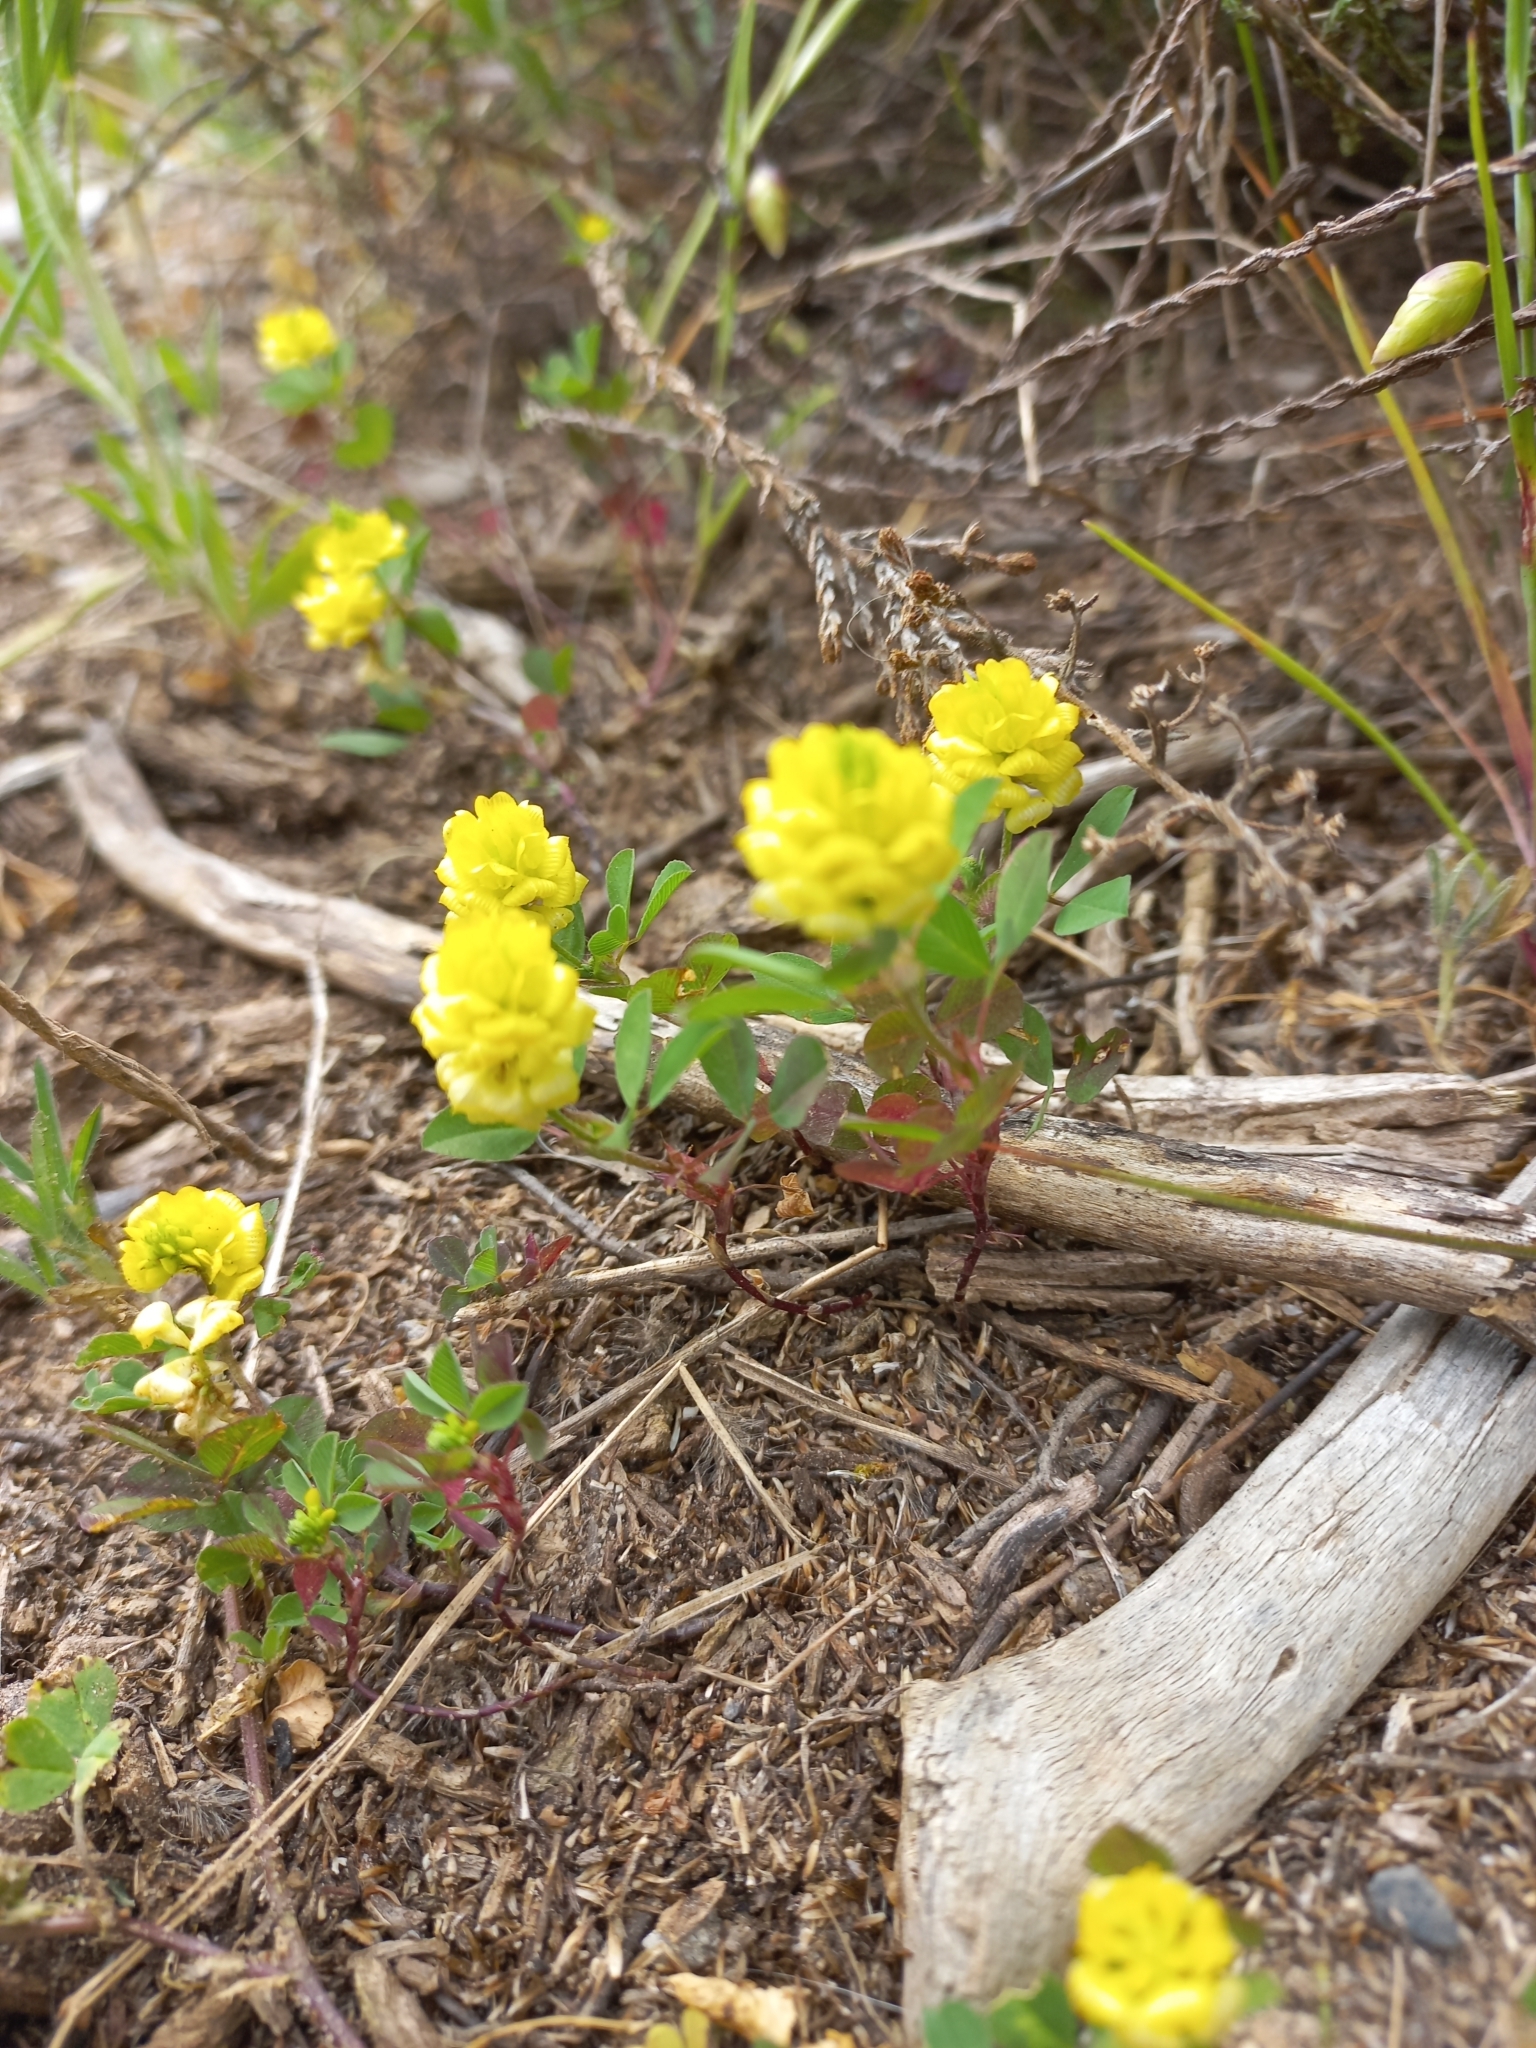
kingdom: Plantae
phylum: Tracheophyta
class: Magnoliopsida
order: Fabales
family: Fabaceae
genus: Trifolium
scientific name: Trifolium campestre
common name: Field clover
